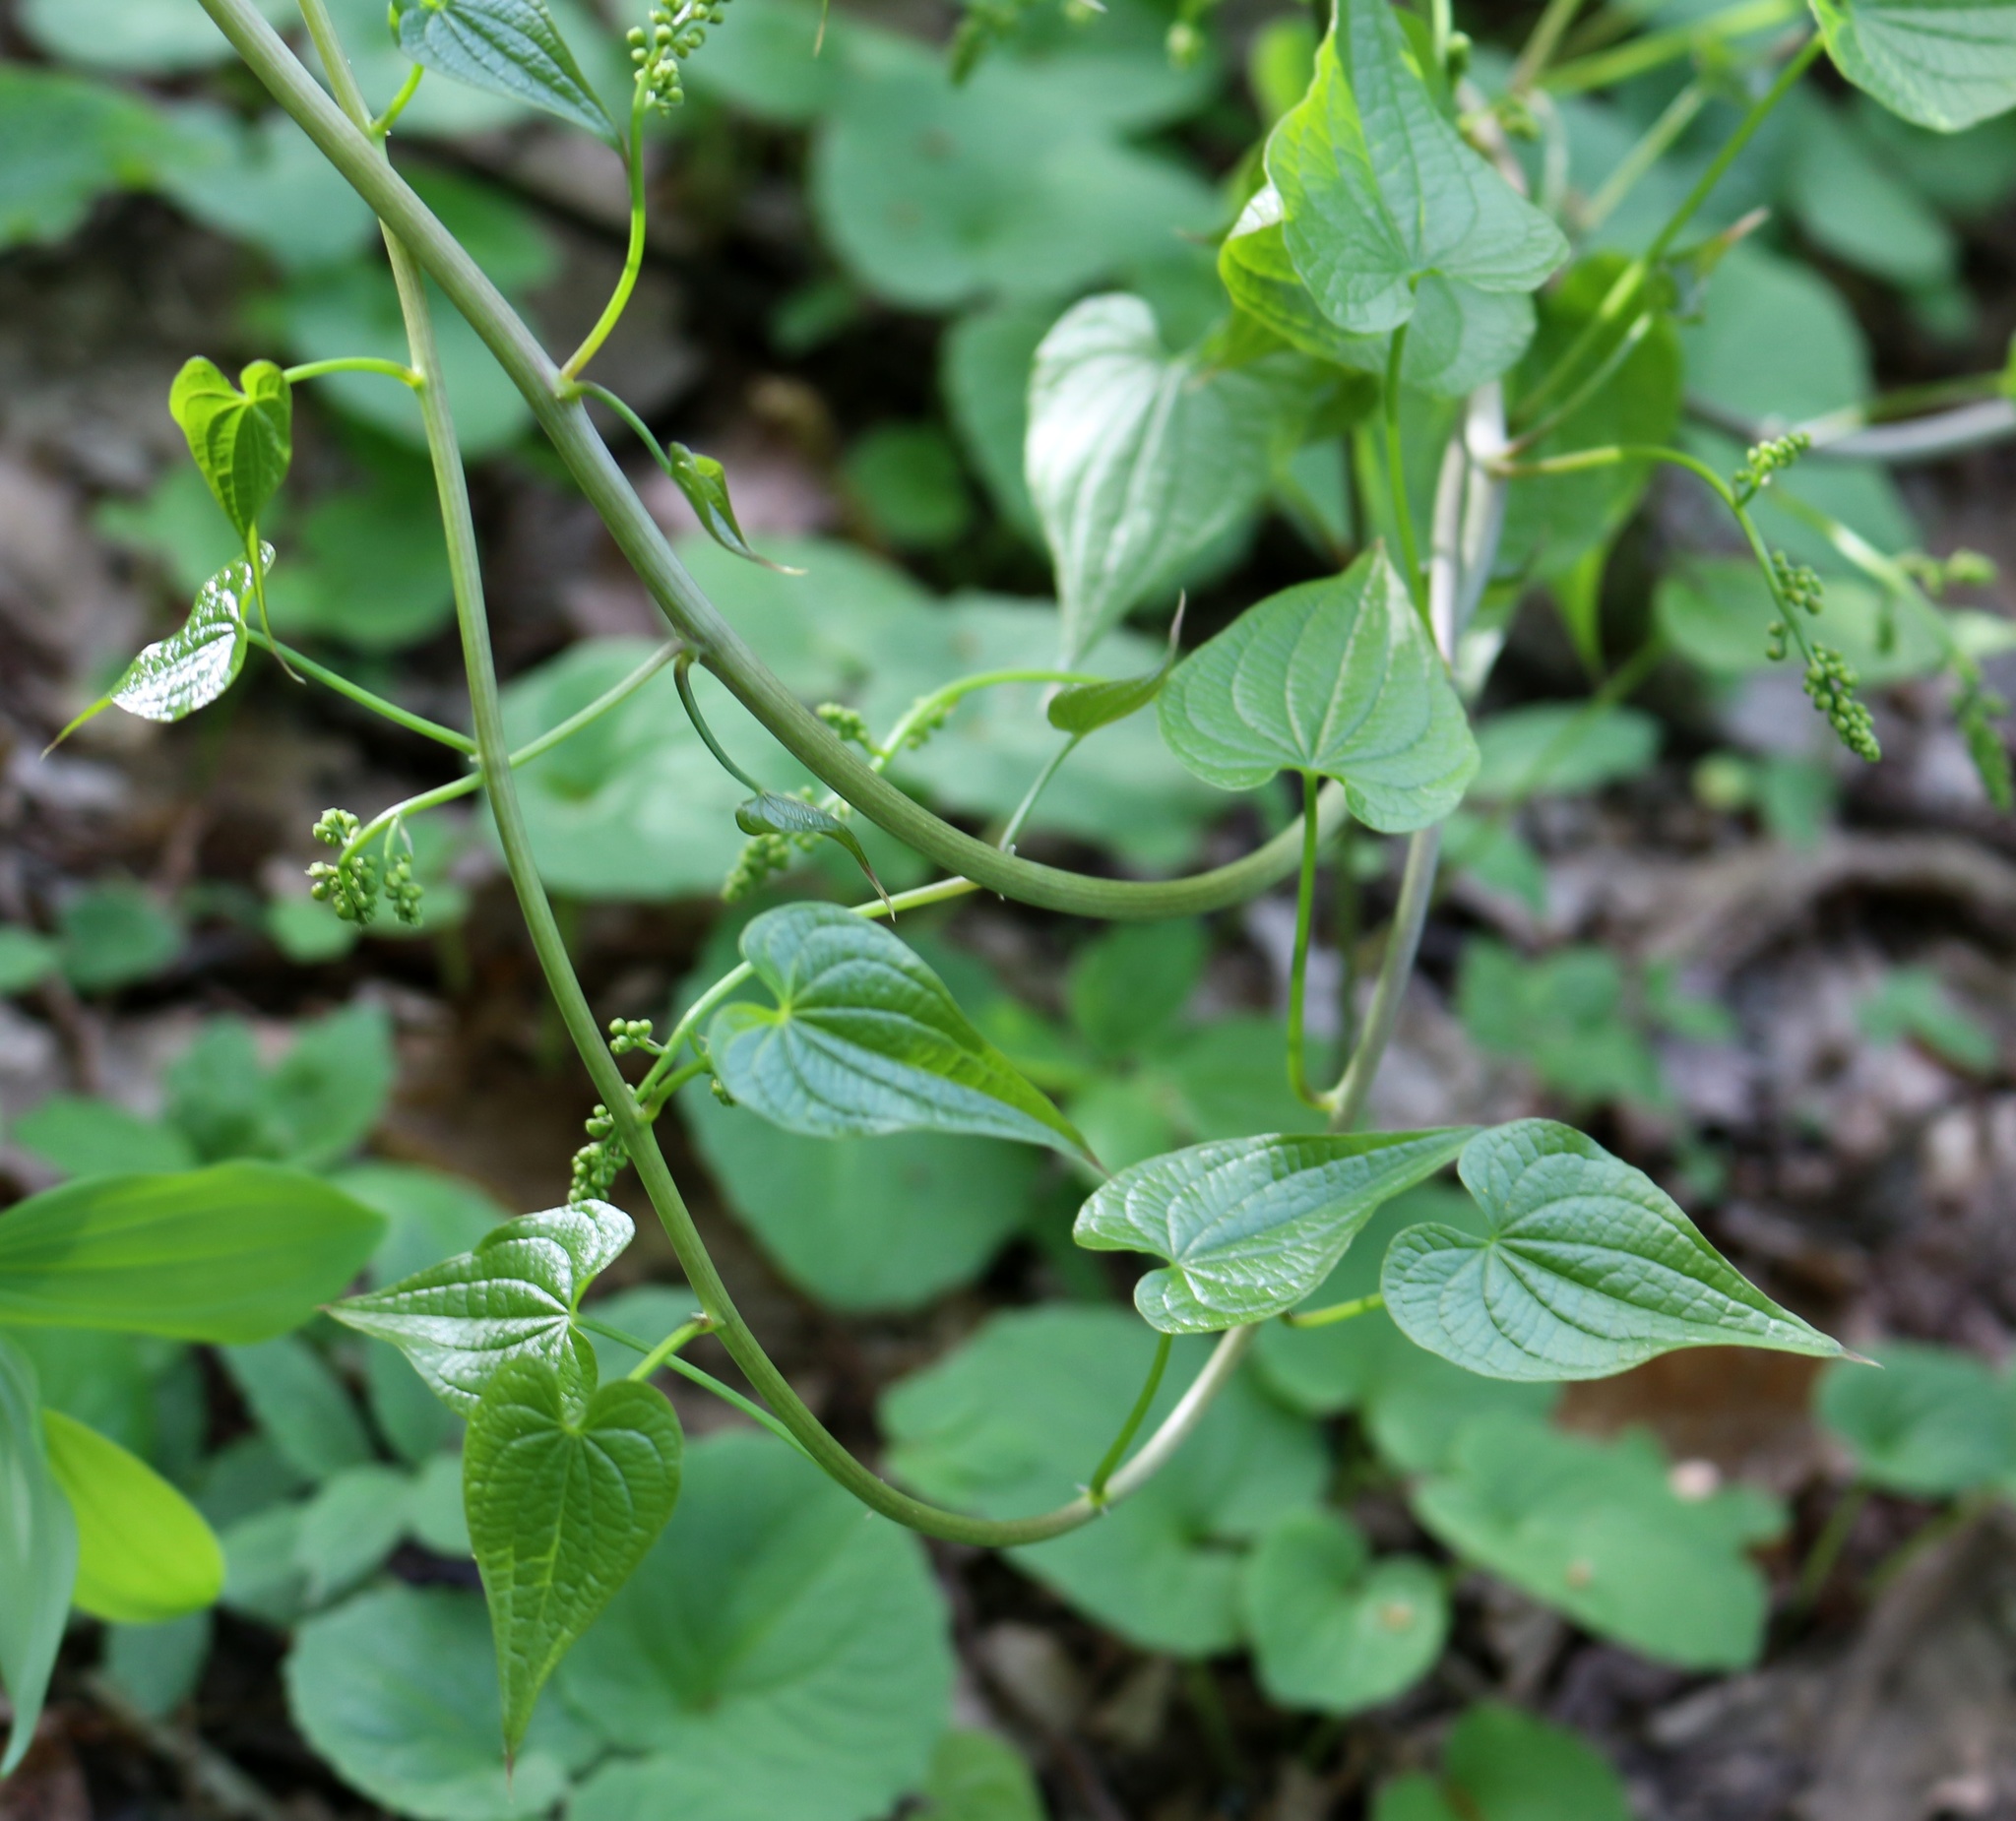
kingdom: Plantae
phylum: Tracheophyta
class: Liliopsida
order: Dioscoreales
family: Dioscoreaceae
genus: Dioscorea
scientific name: Dioscorea communis
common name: Black-bindweed
